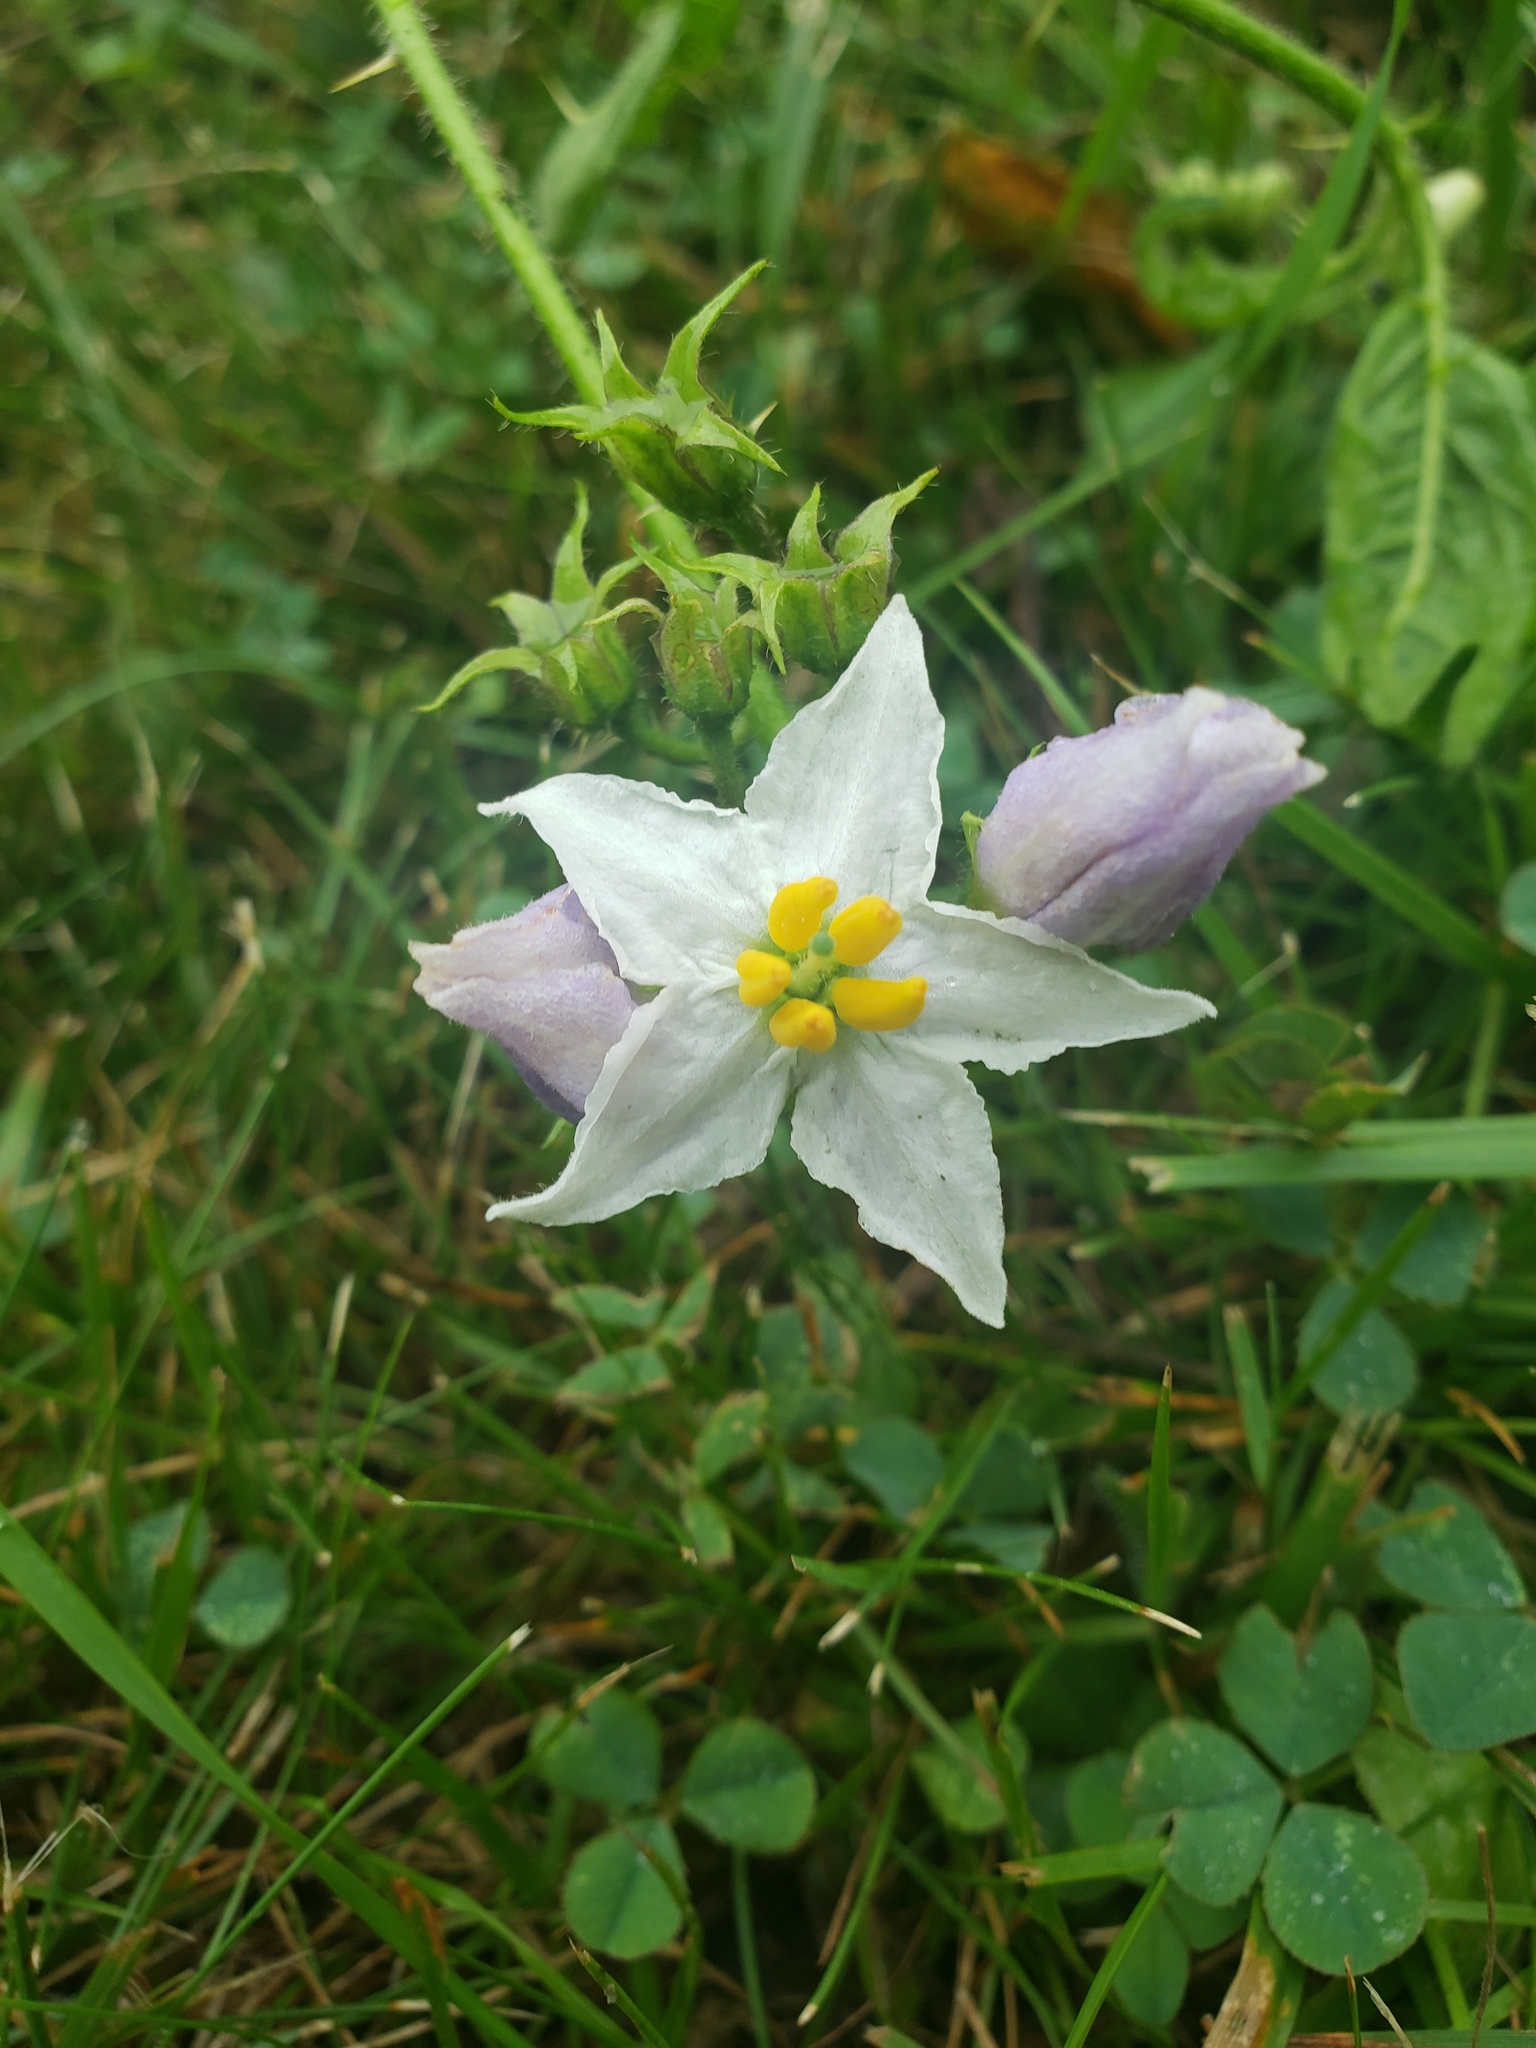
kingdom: Plantae
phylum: Tracheophyta
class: Magnoliopsida
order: Solanales
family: Solanaceae
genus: Solanum
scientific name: Solanum carolinense
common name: Horse-nettle
